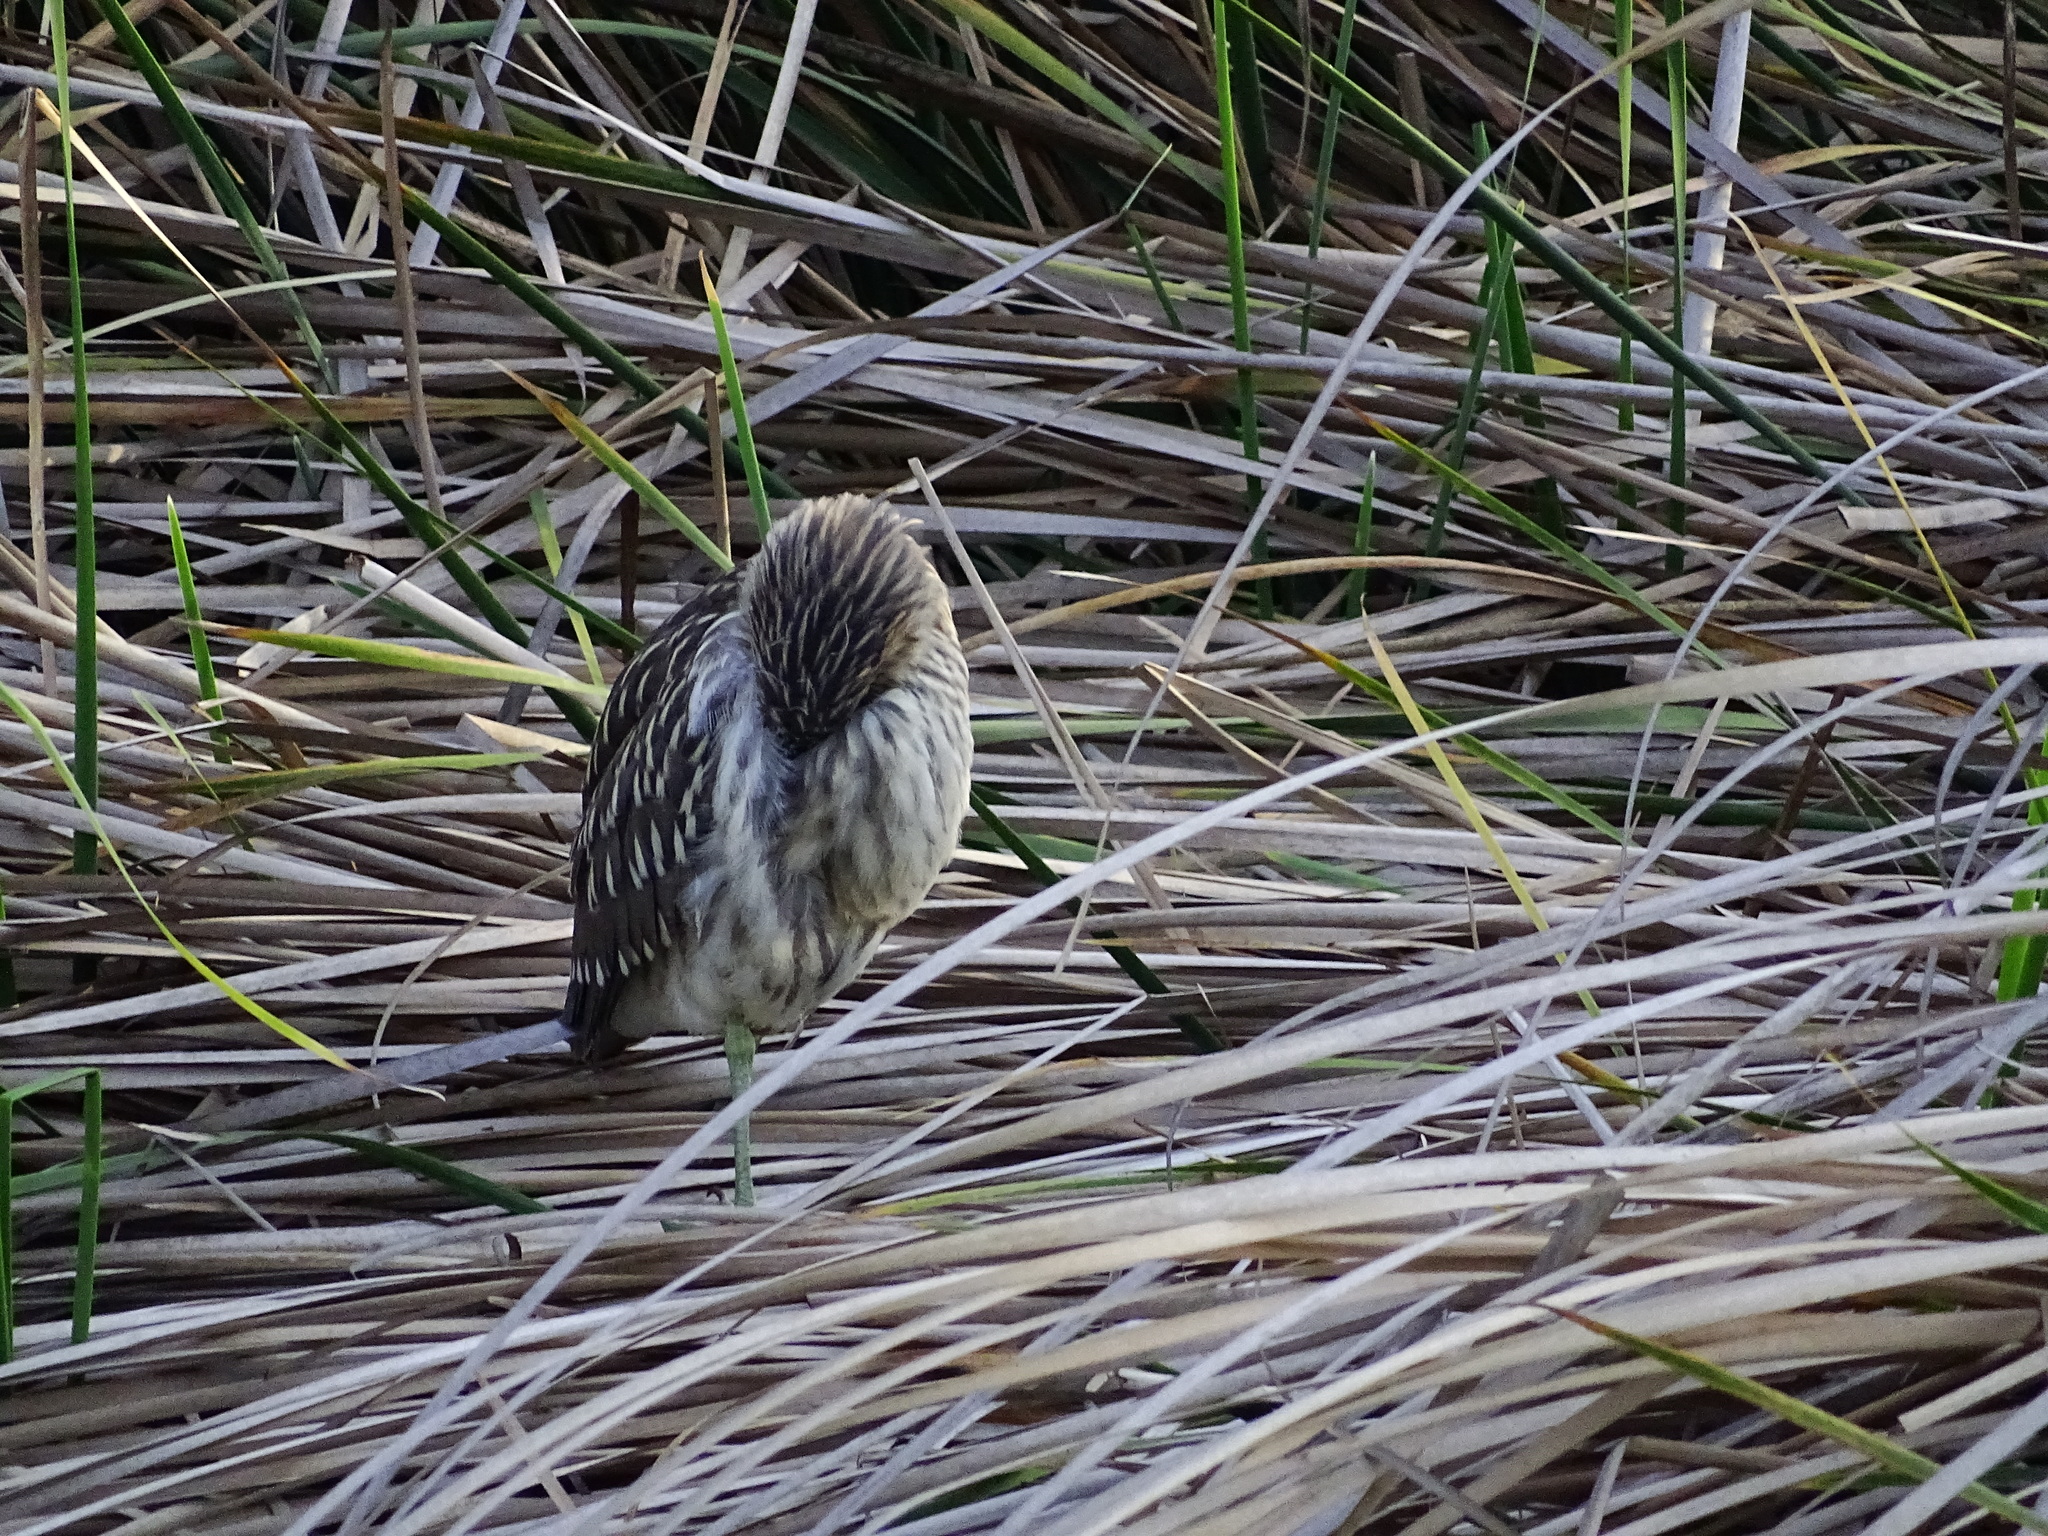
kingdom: Animalia
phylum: Chordata
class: Aves
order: Pelecaniformes
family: Ardeidae
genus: Nycticorax
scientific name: Nycticorax nycticorax
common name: Black-crowned night heron
